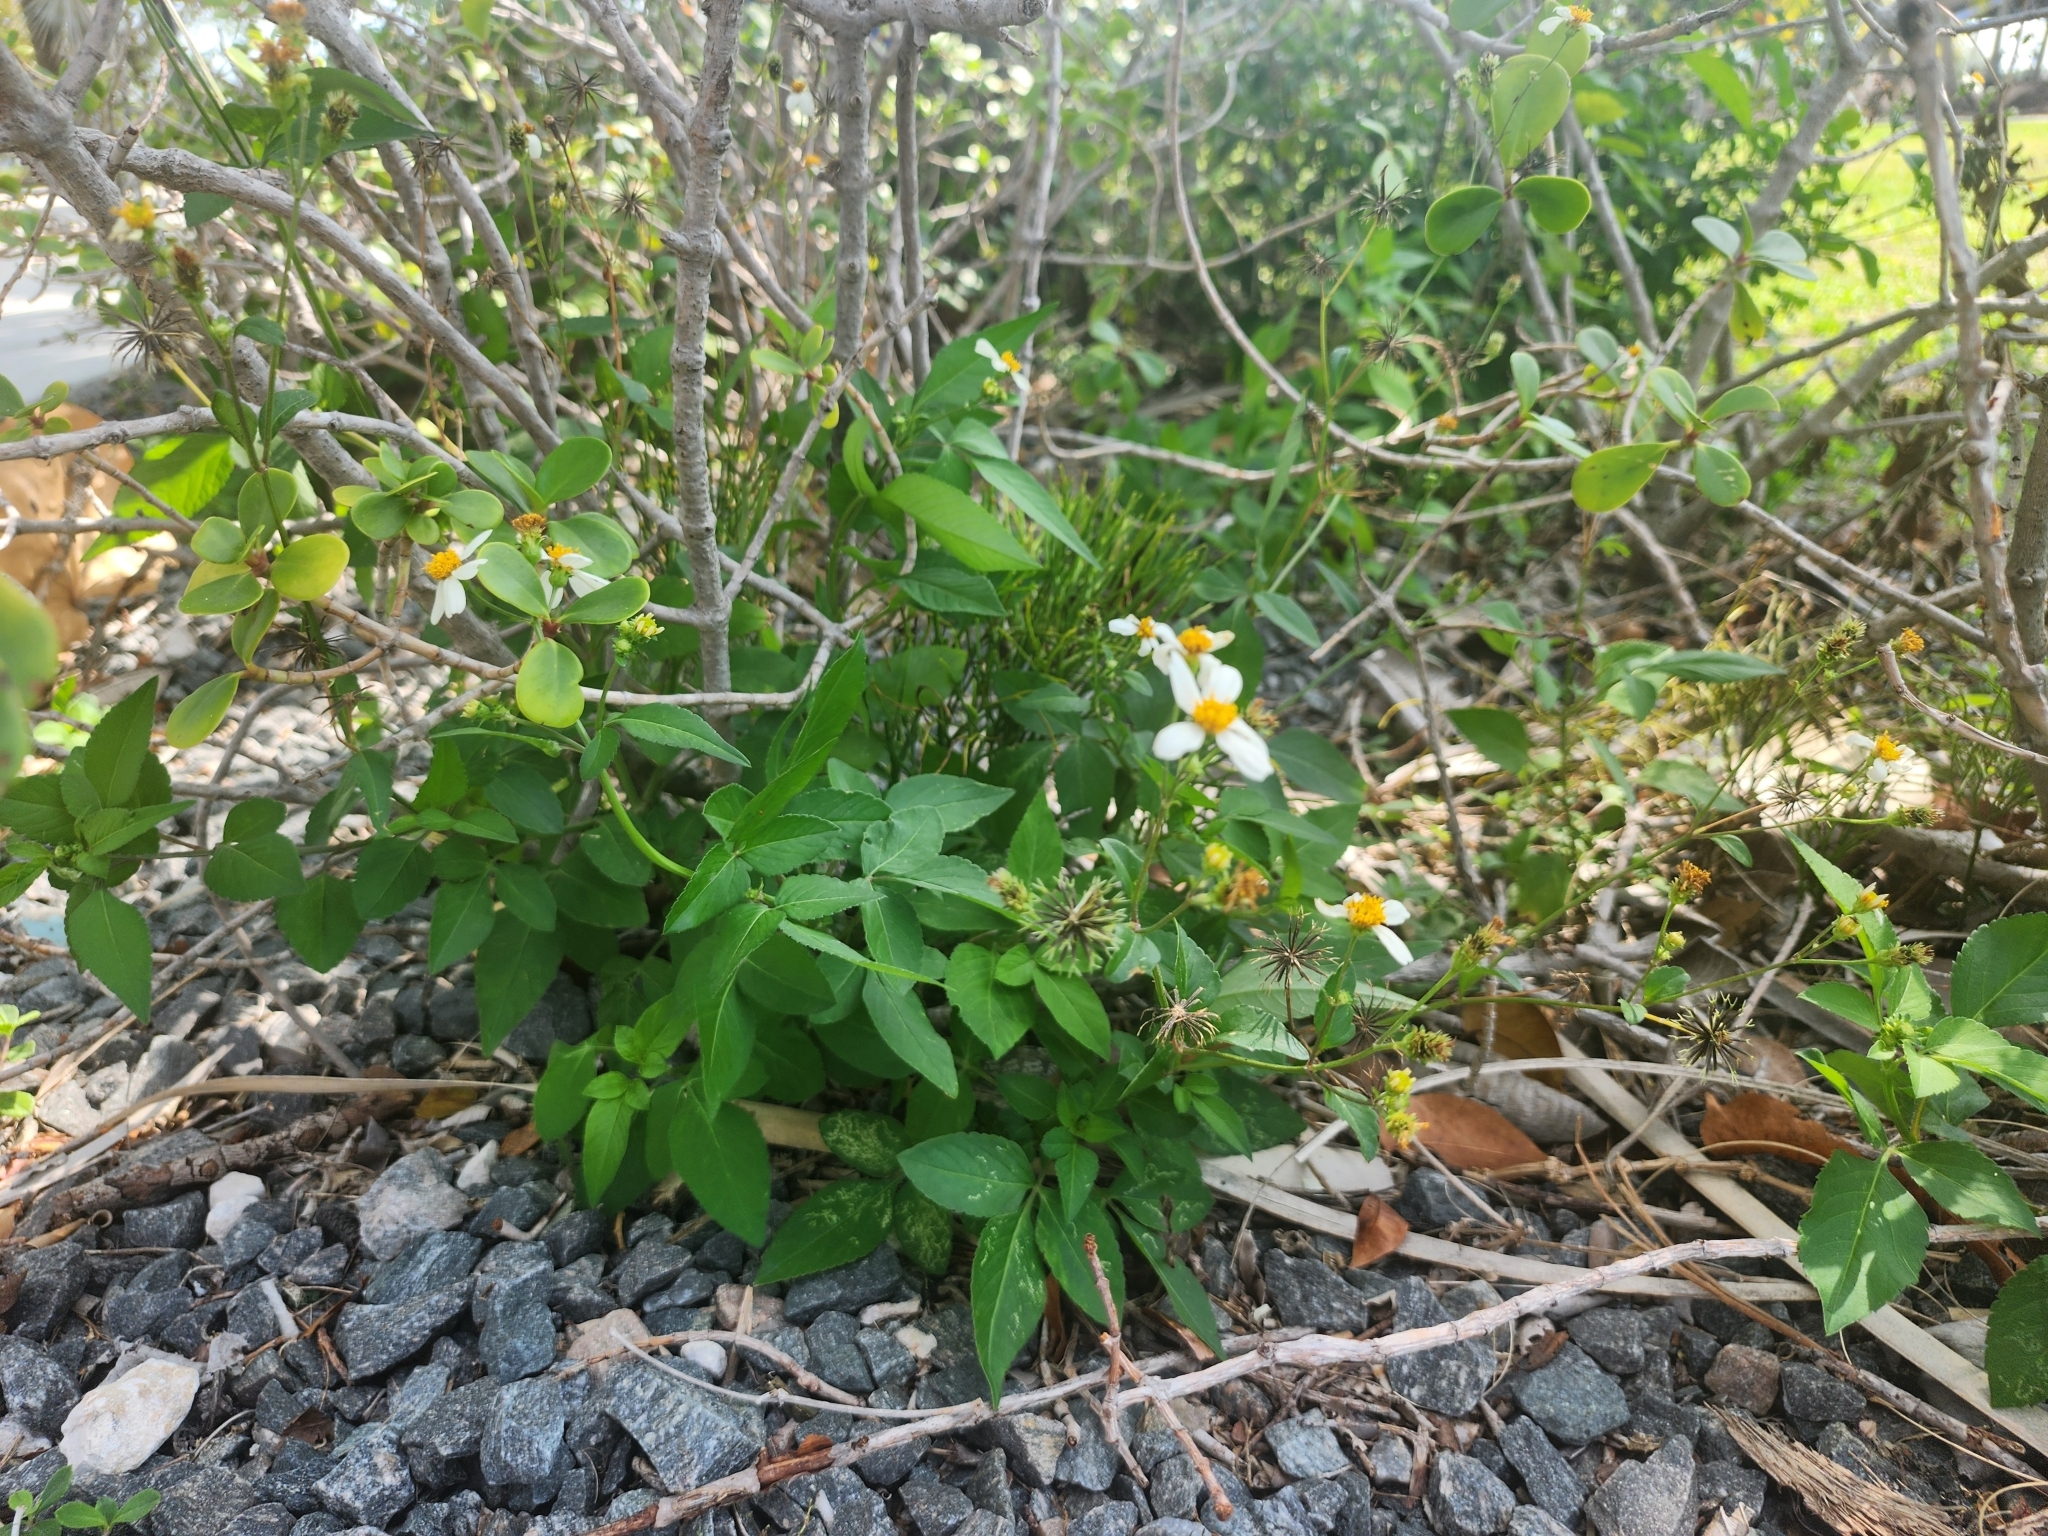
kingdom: Plantae
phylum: Tracheophyta
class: Magnoliopsida
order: Asterales
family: Asteraceae
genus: Bidens
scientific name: Bidens alba
